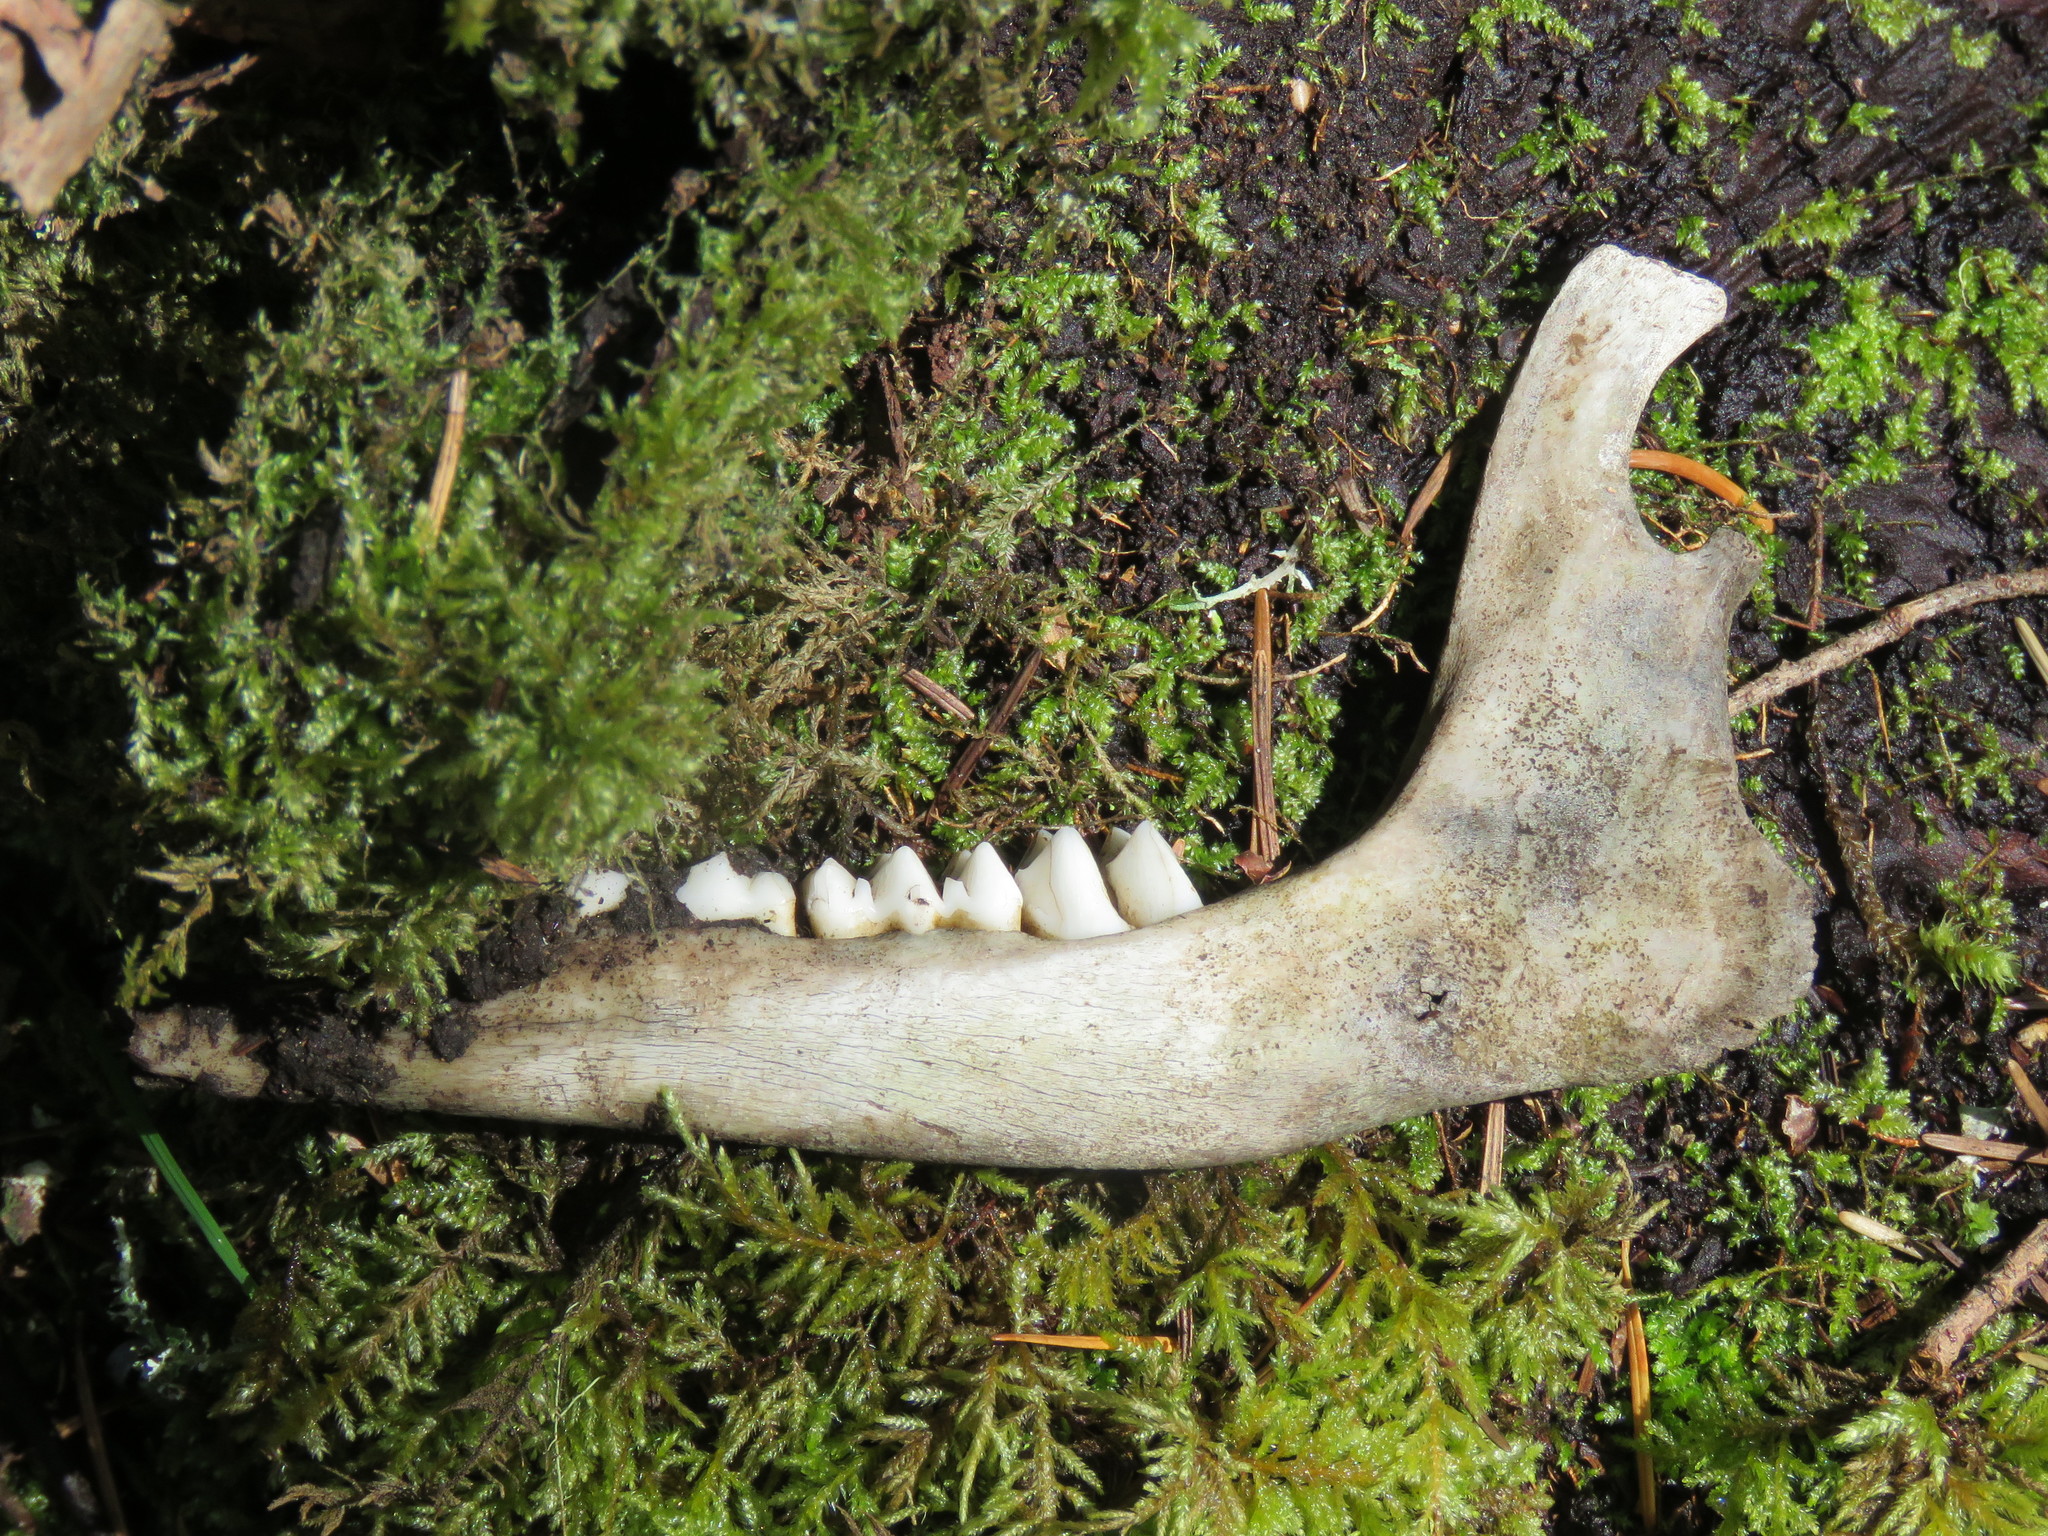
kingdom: Animalia
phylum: Chordata
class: Mammalia
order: Artiodactyla
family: Cervidae
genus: Odocoileus
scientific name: Odocoileus hemionus
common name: Mule deer
